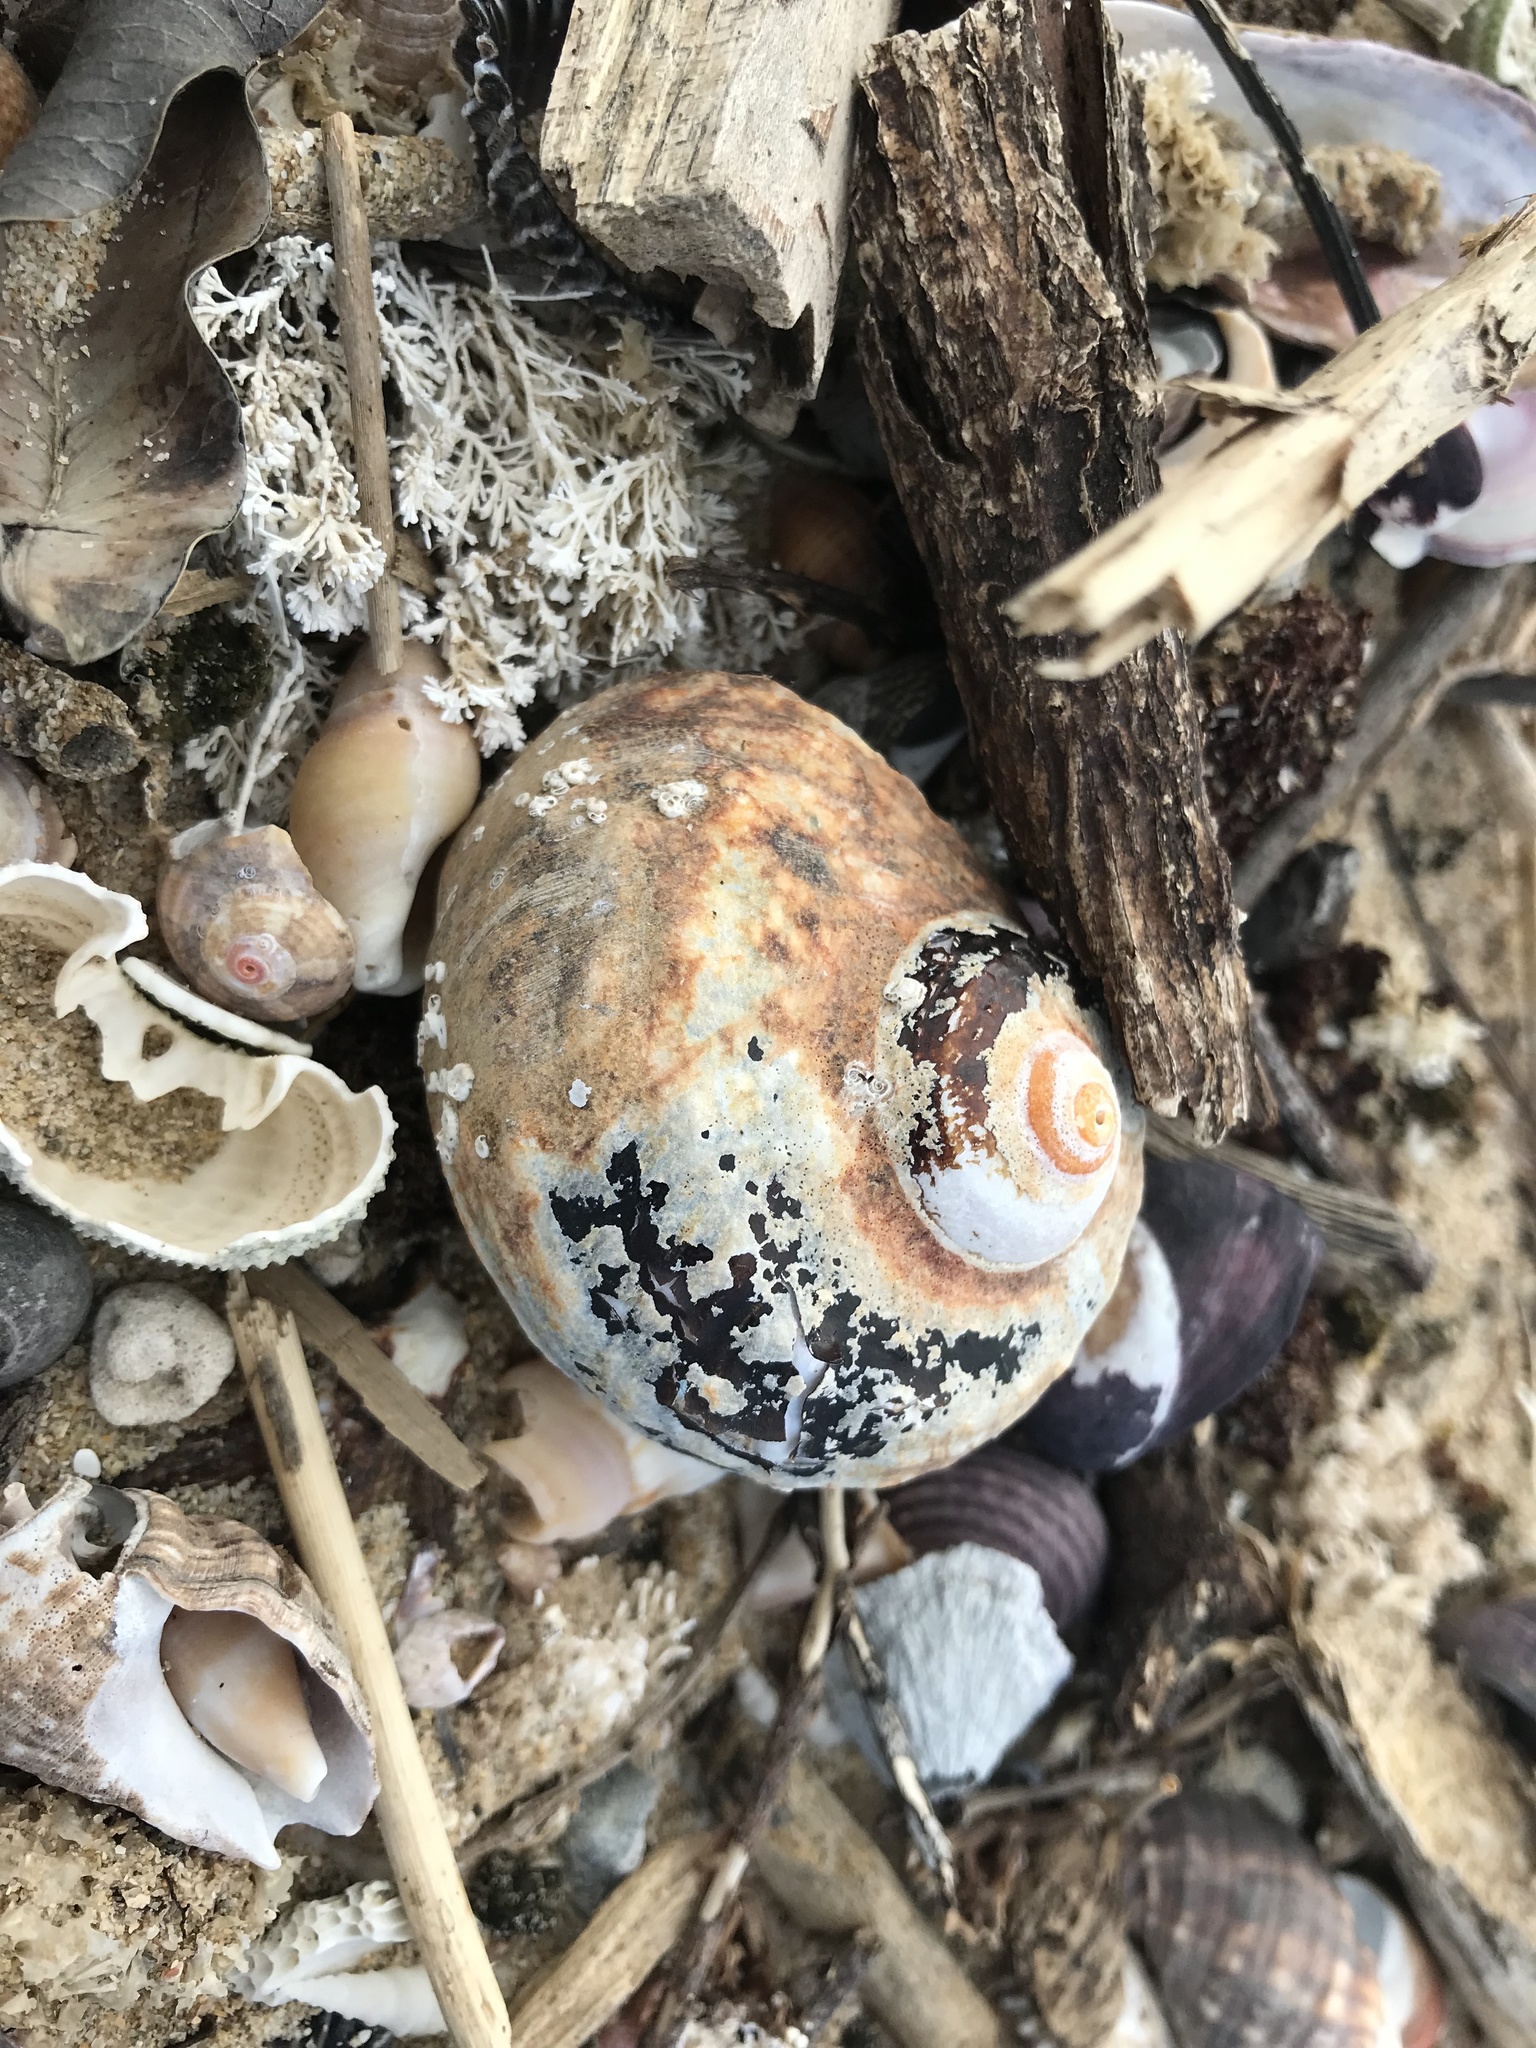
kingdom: Animalia
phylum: Mollusca
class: Gastropoda
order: Trochida
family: Turbinidae
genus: Turbo
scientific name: Turbo sarmaticus
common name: South african turban
